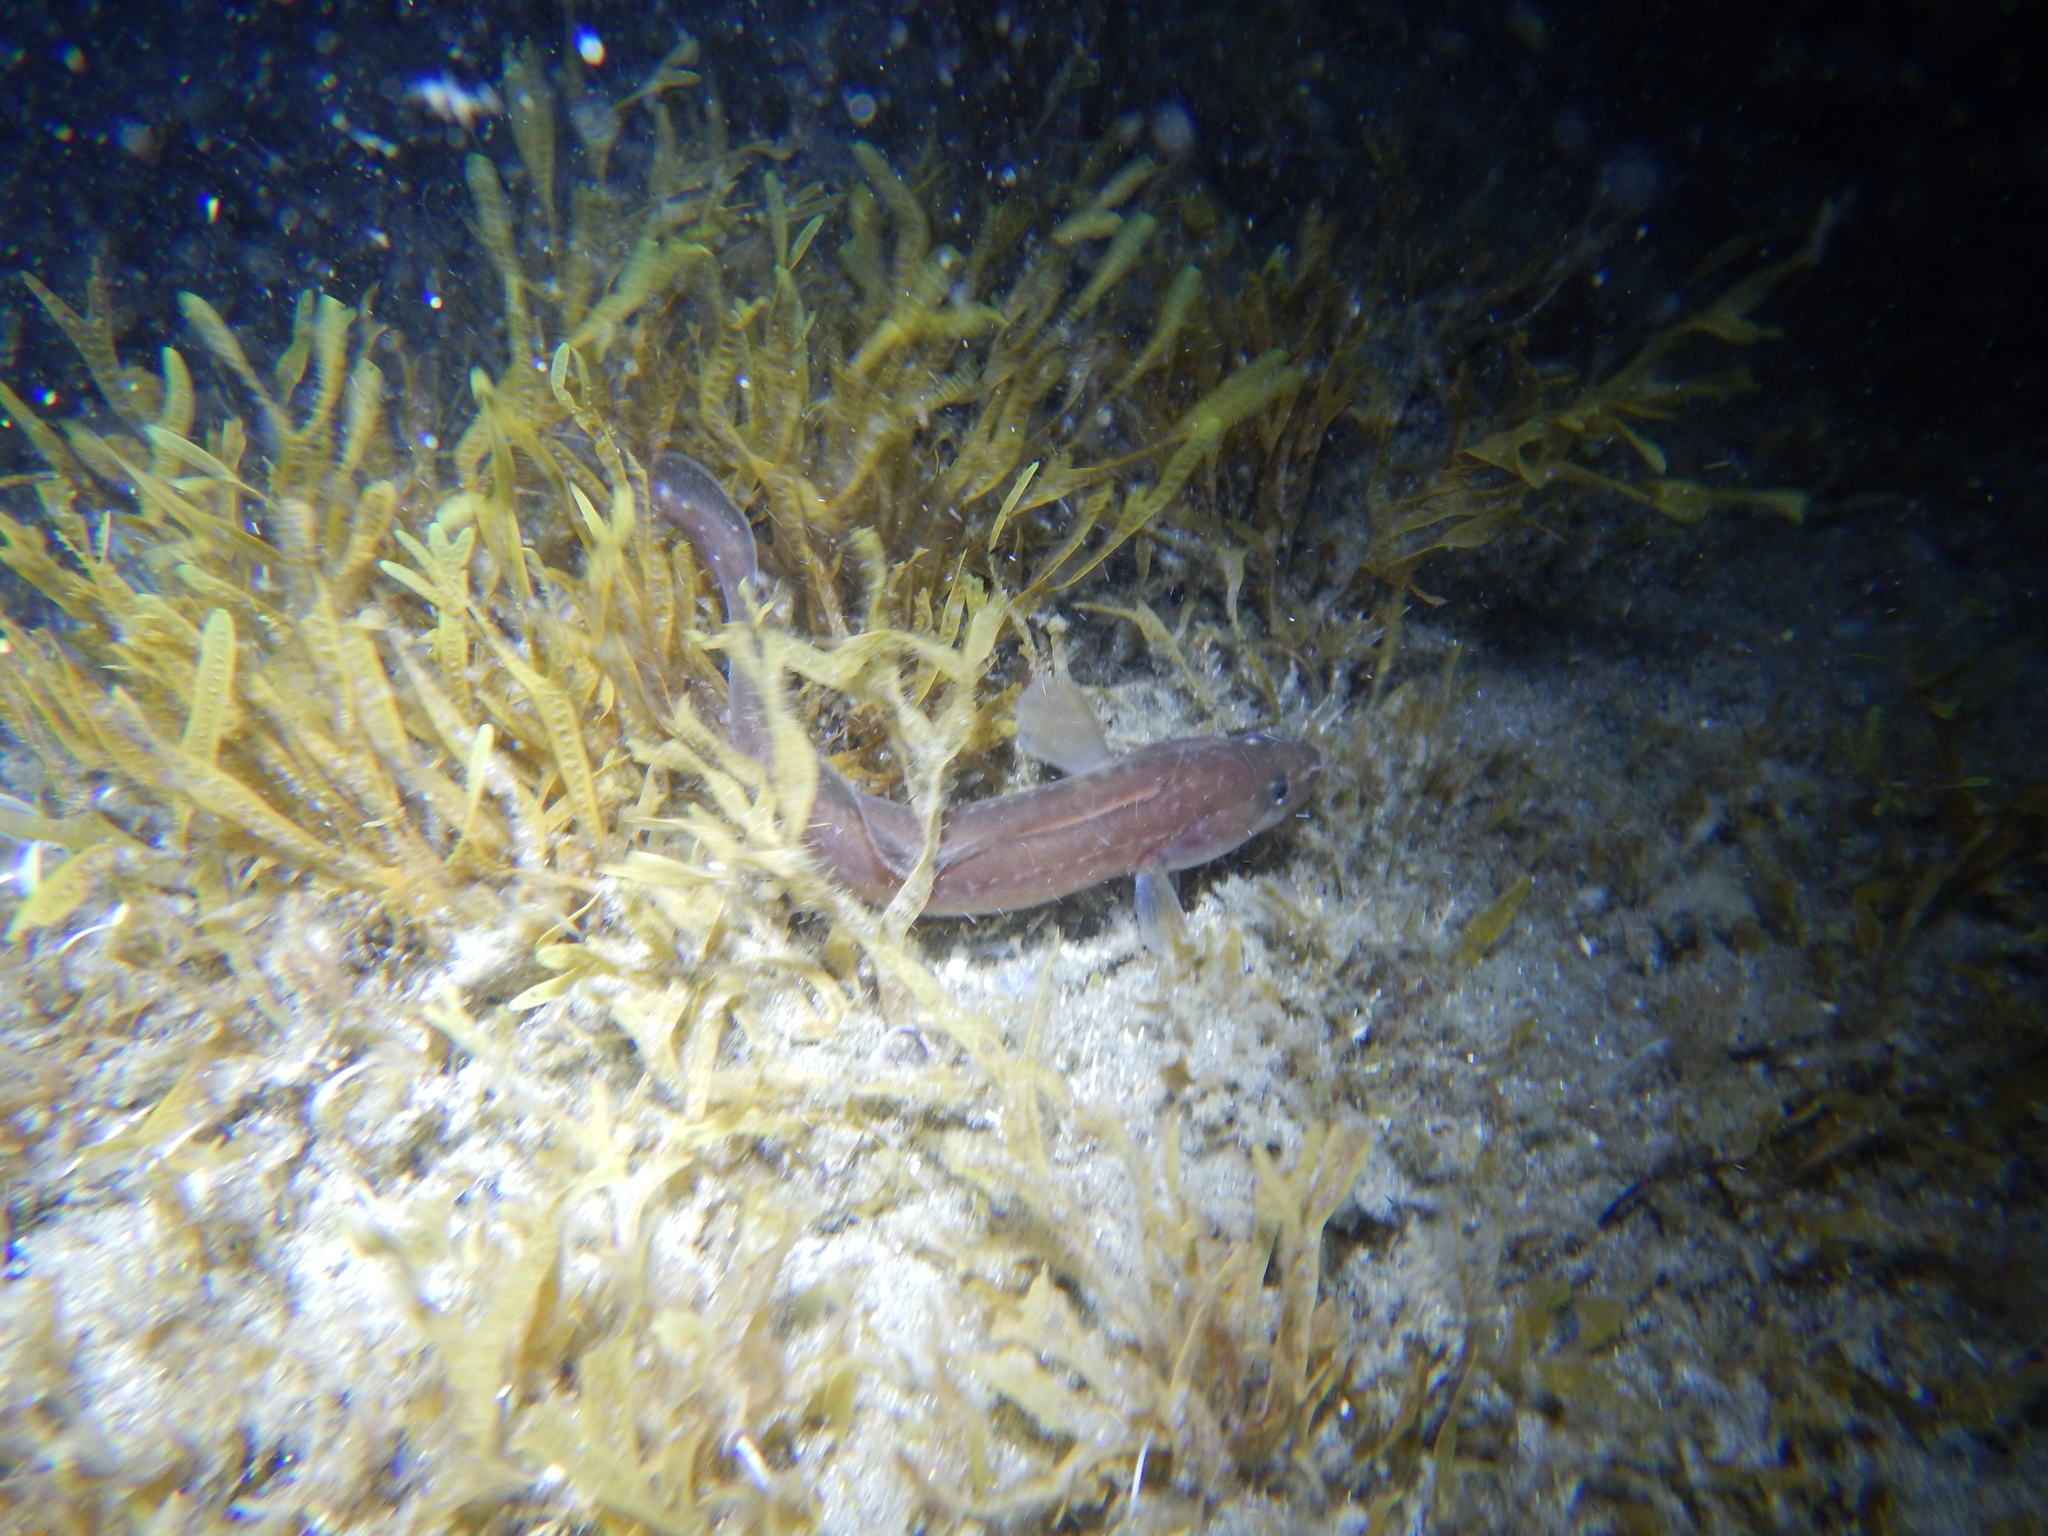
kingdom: Animalia
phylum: Chordata
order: Gadiformes
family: Lotidae
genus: Gaidropsarus
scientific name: Gaidropsarus mediterraneus
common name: Shore rockling
